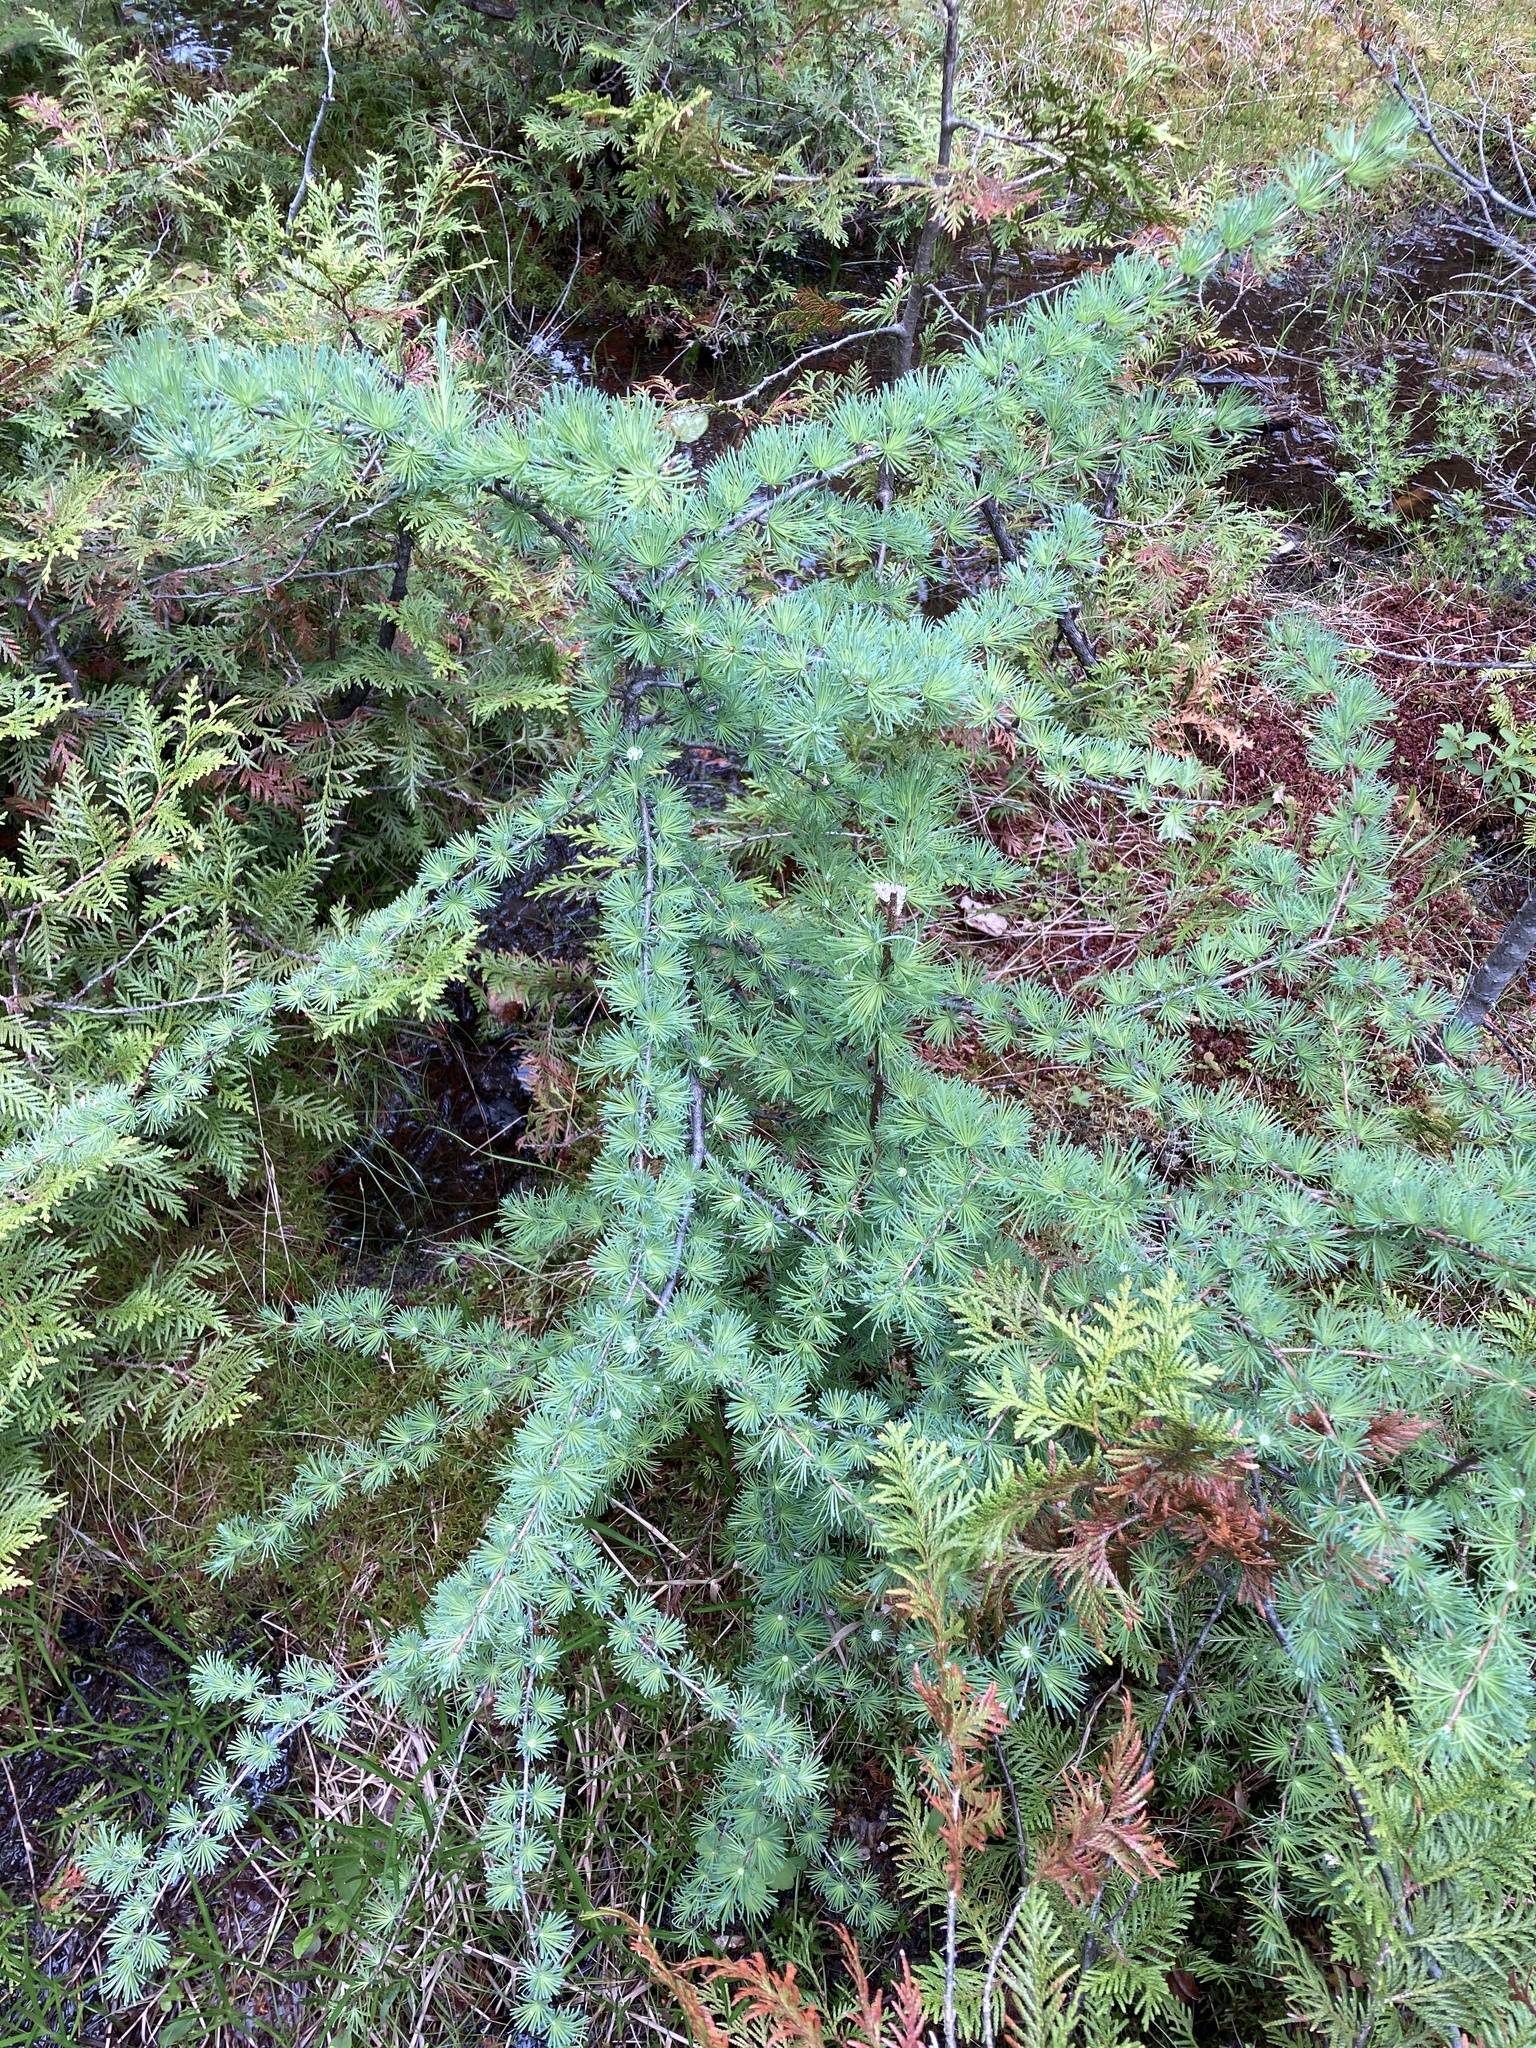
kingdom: Plantae
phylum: Tracheophyta
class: Pinopsida
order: Pinales
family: Pinaceae
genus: Larix
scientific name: Larix laricina
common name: American larch
